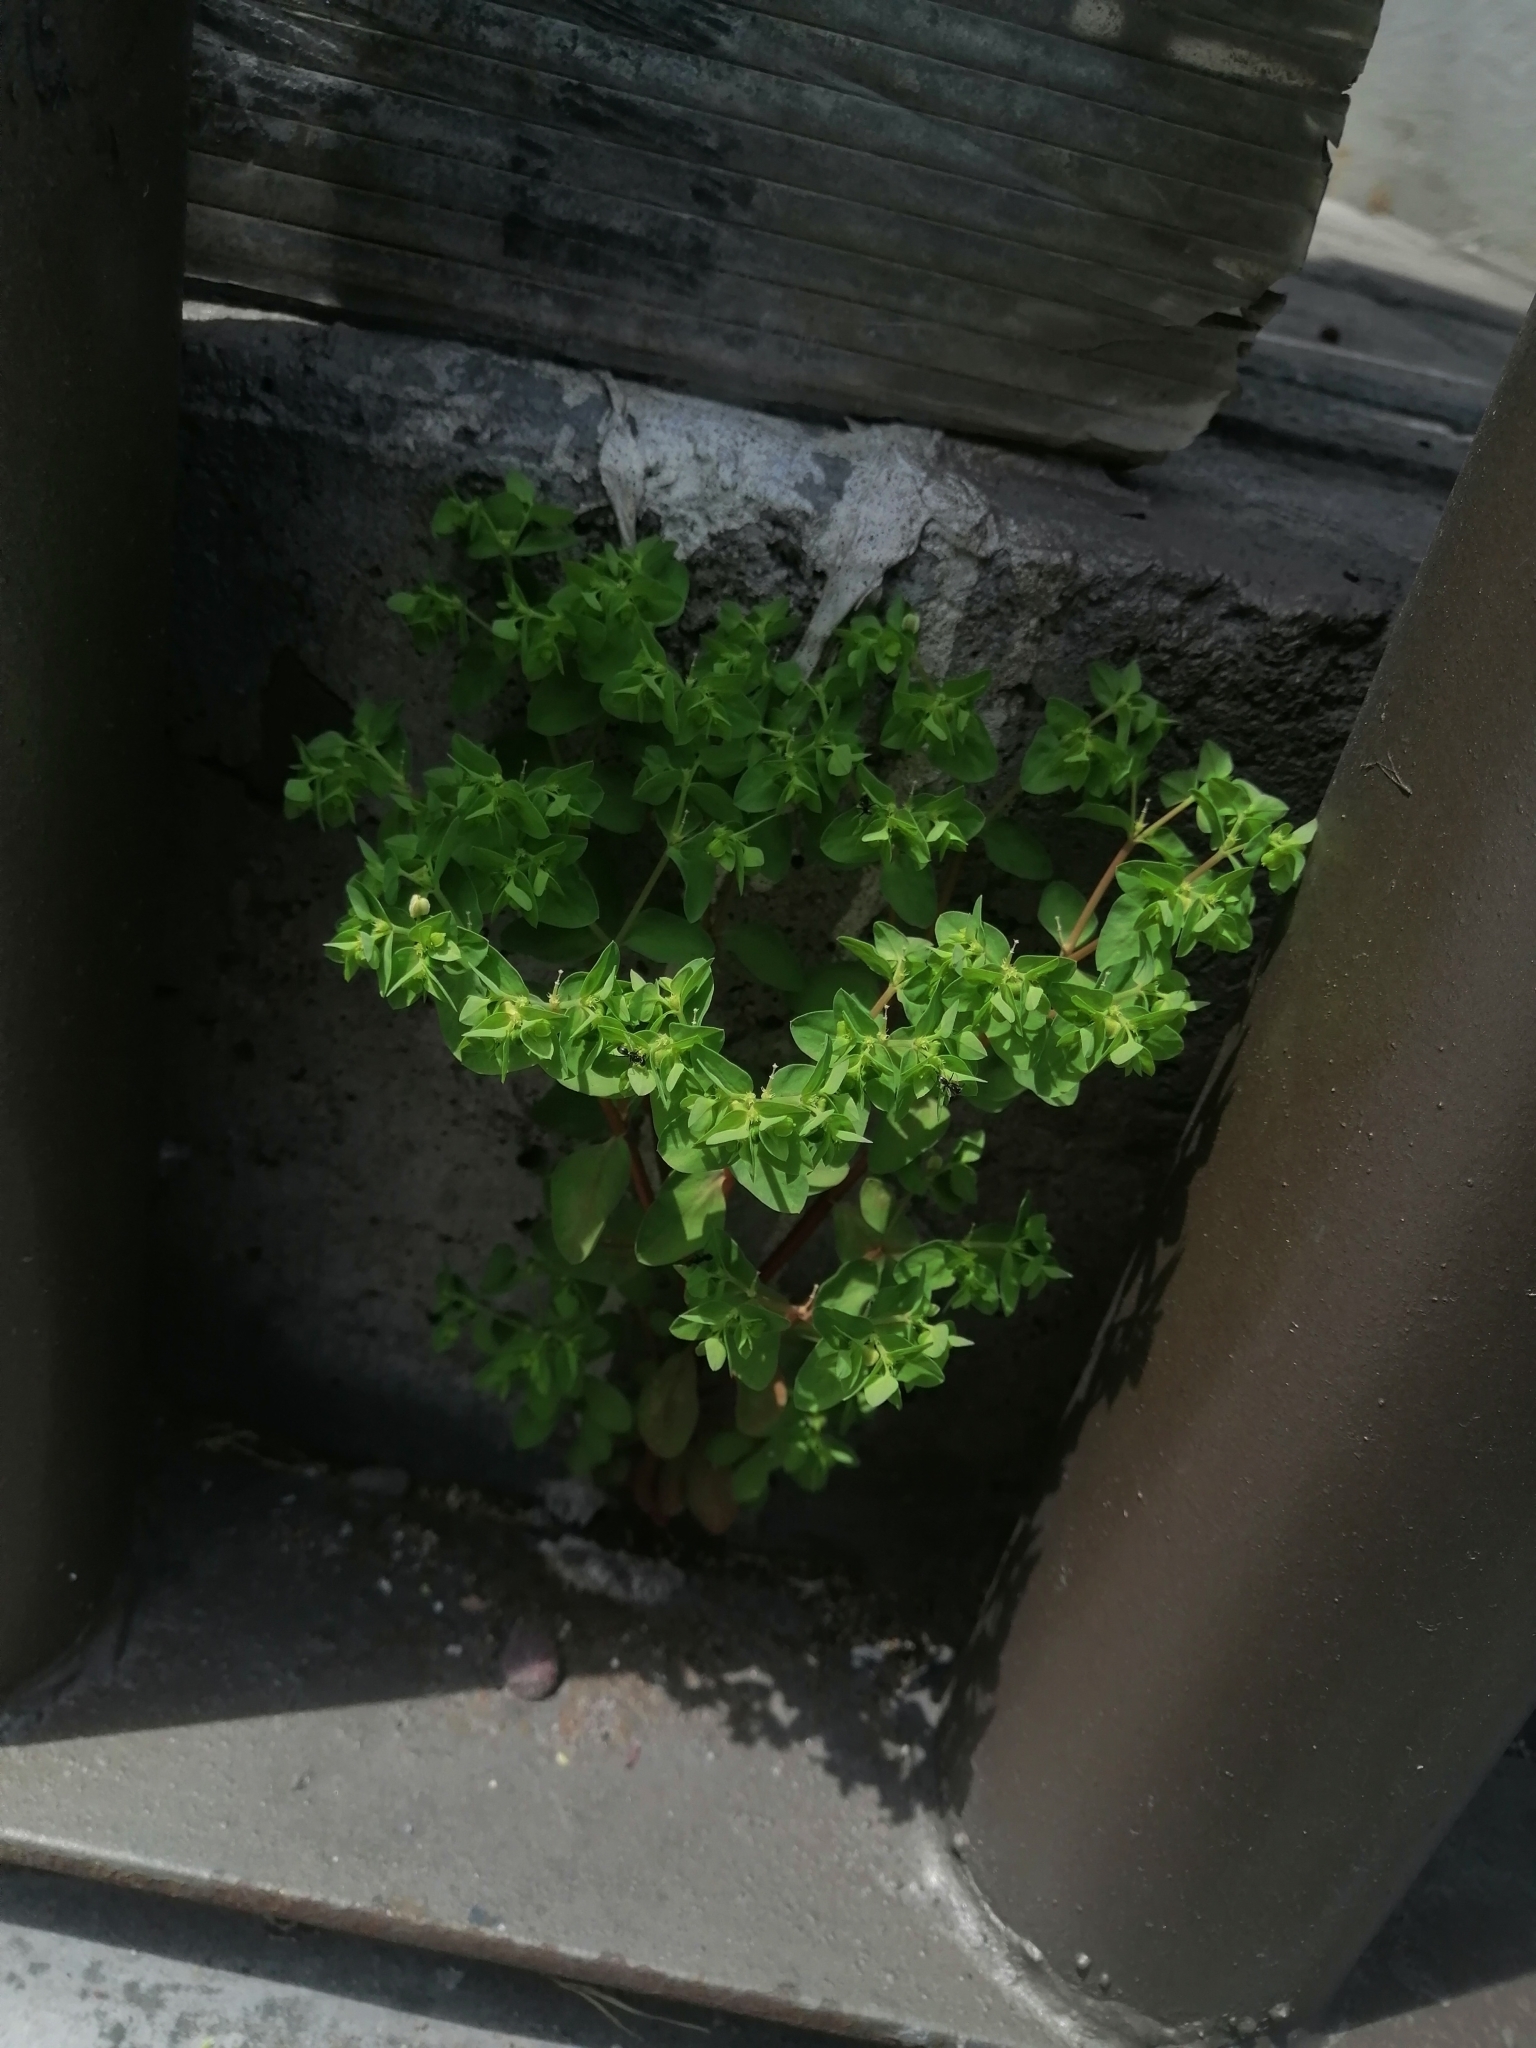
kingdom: Plantae
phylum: Tracheophyta
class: Magnoliopsida
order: Malpighiales
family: Euphorbiaceae
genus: Euphorbia
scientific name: Euphorbia peplus
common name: Petty spurge
